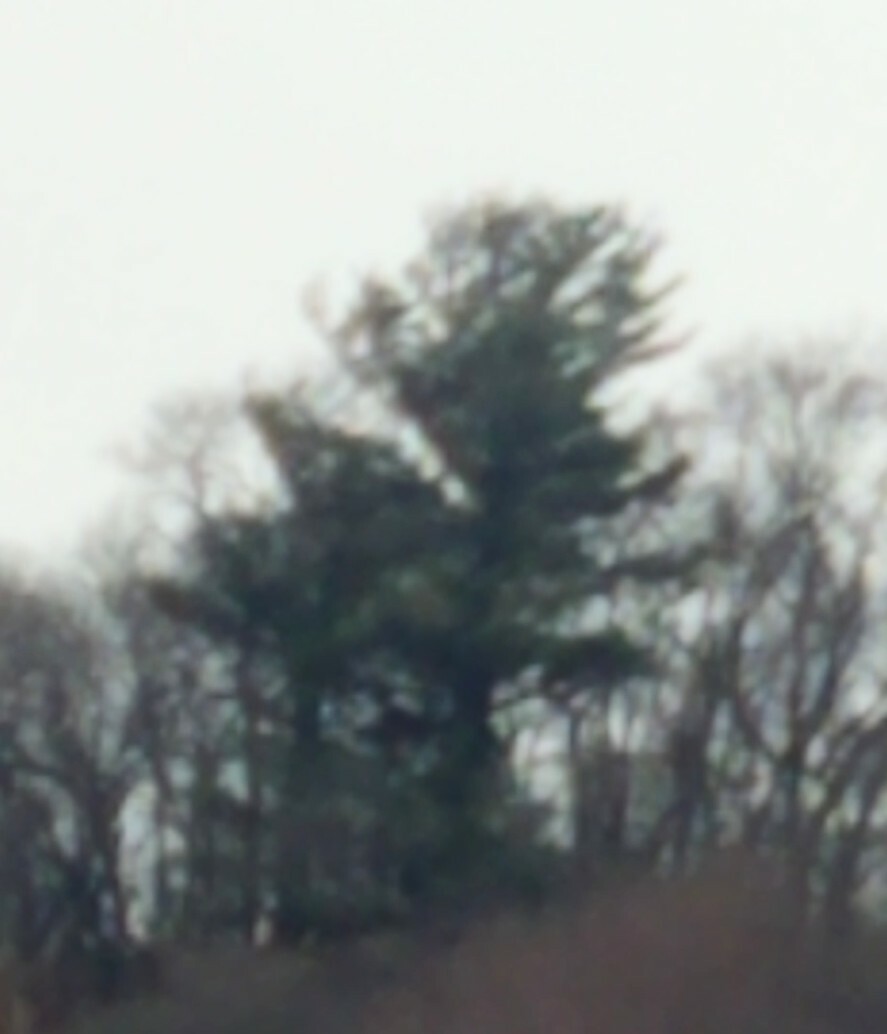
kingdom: Plantae
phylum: Tracheophyta
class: Pinopsida
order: Pinales
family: Pinaceae
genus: Pinus
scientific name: Pinus strobus
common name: Weymouth pine
